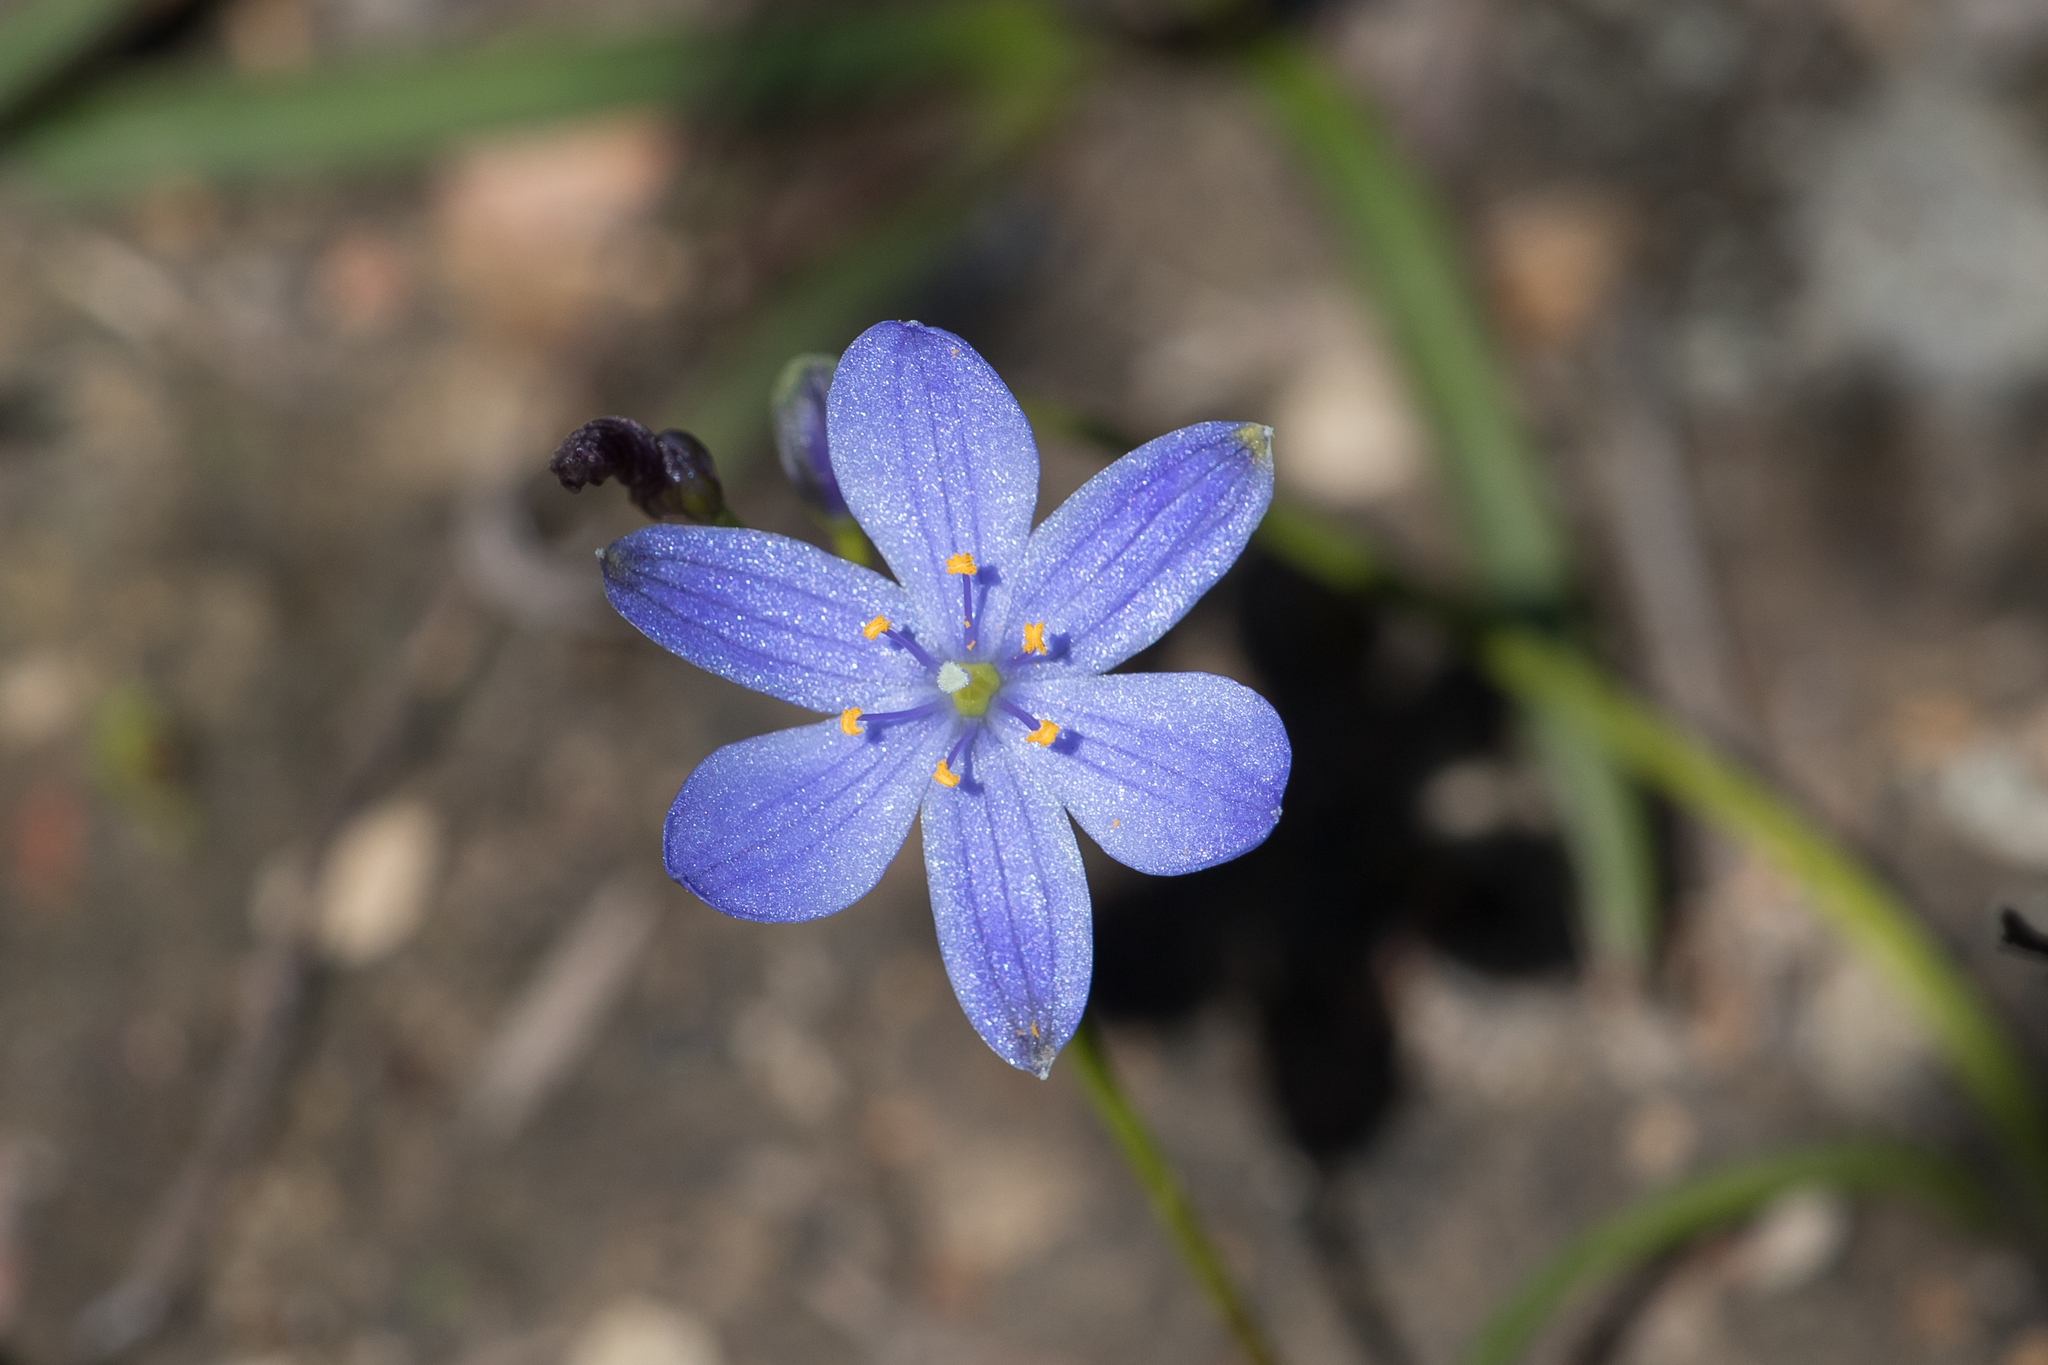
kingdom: Plantae
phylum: Tracheophyta
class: Liliopsida
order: Asparagales
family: Asphodelaceae
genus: Chamaescilla
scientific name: Chamaescilla corymbosa
